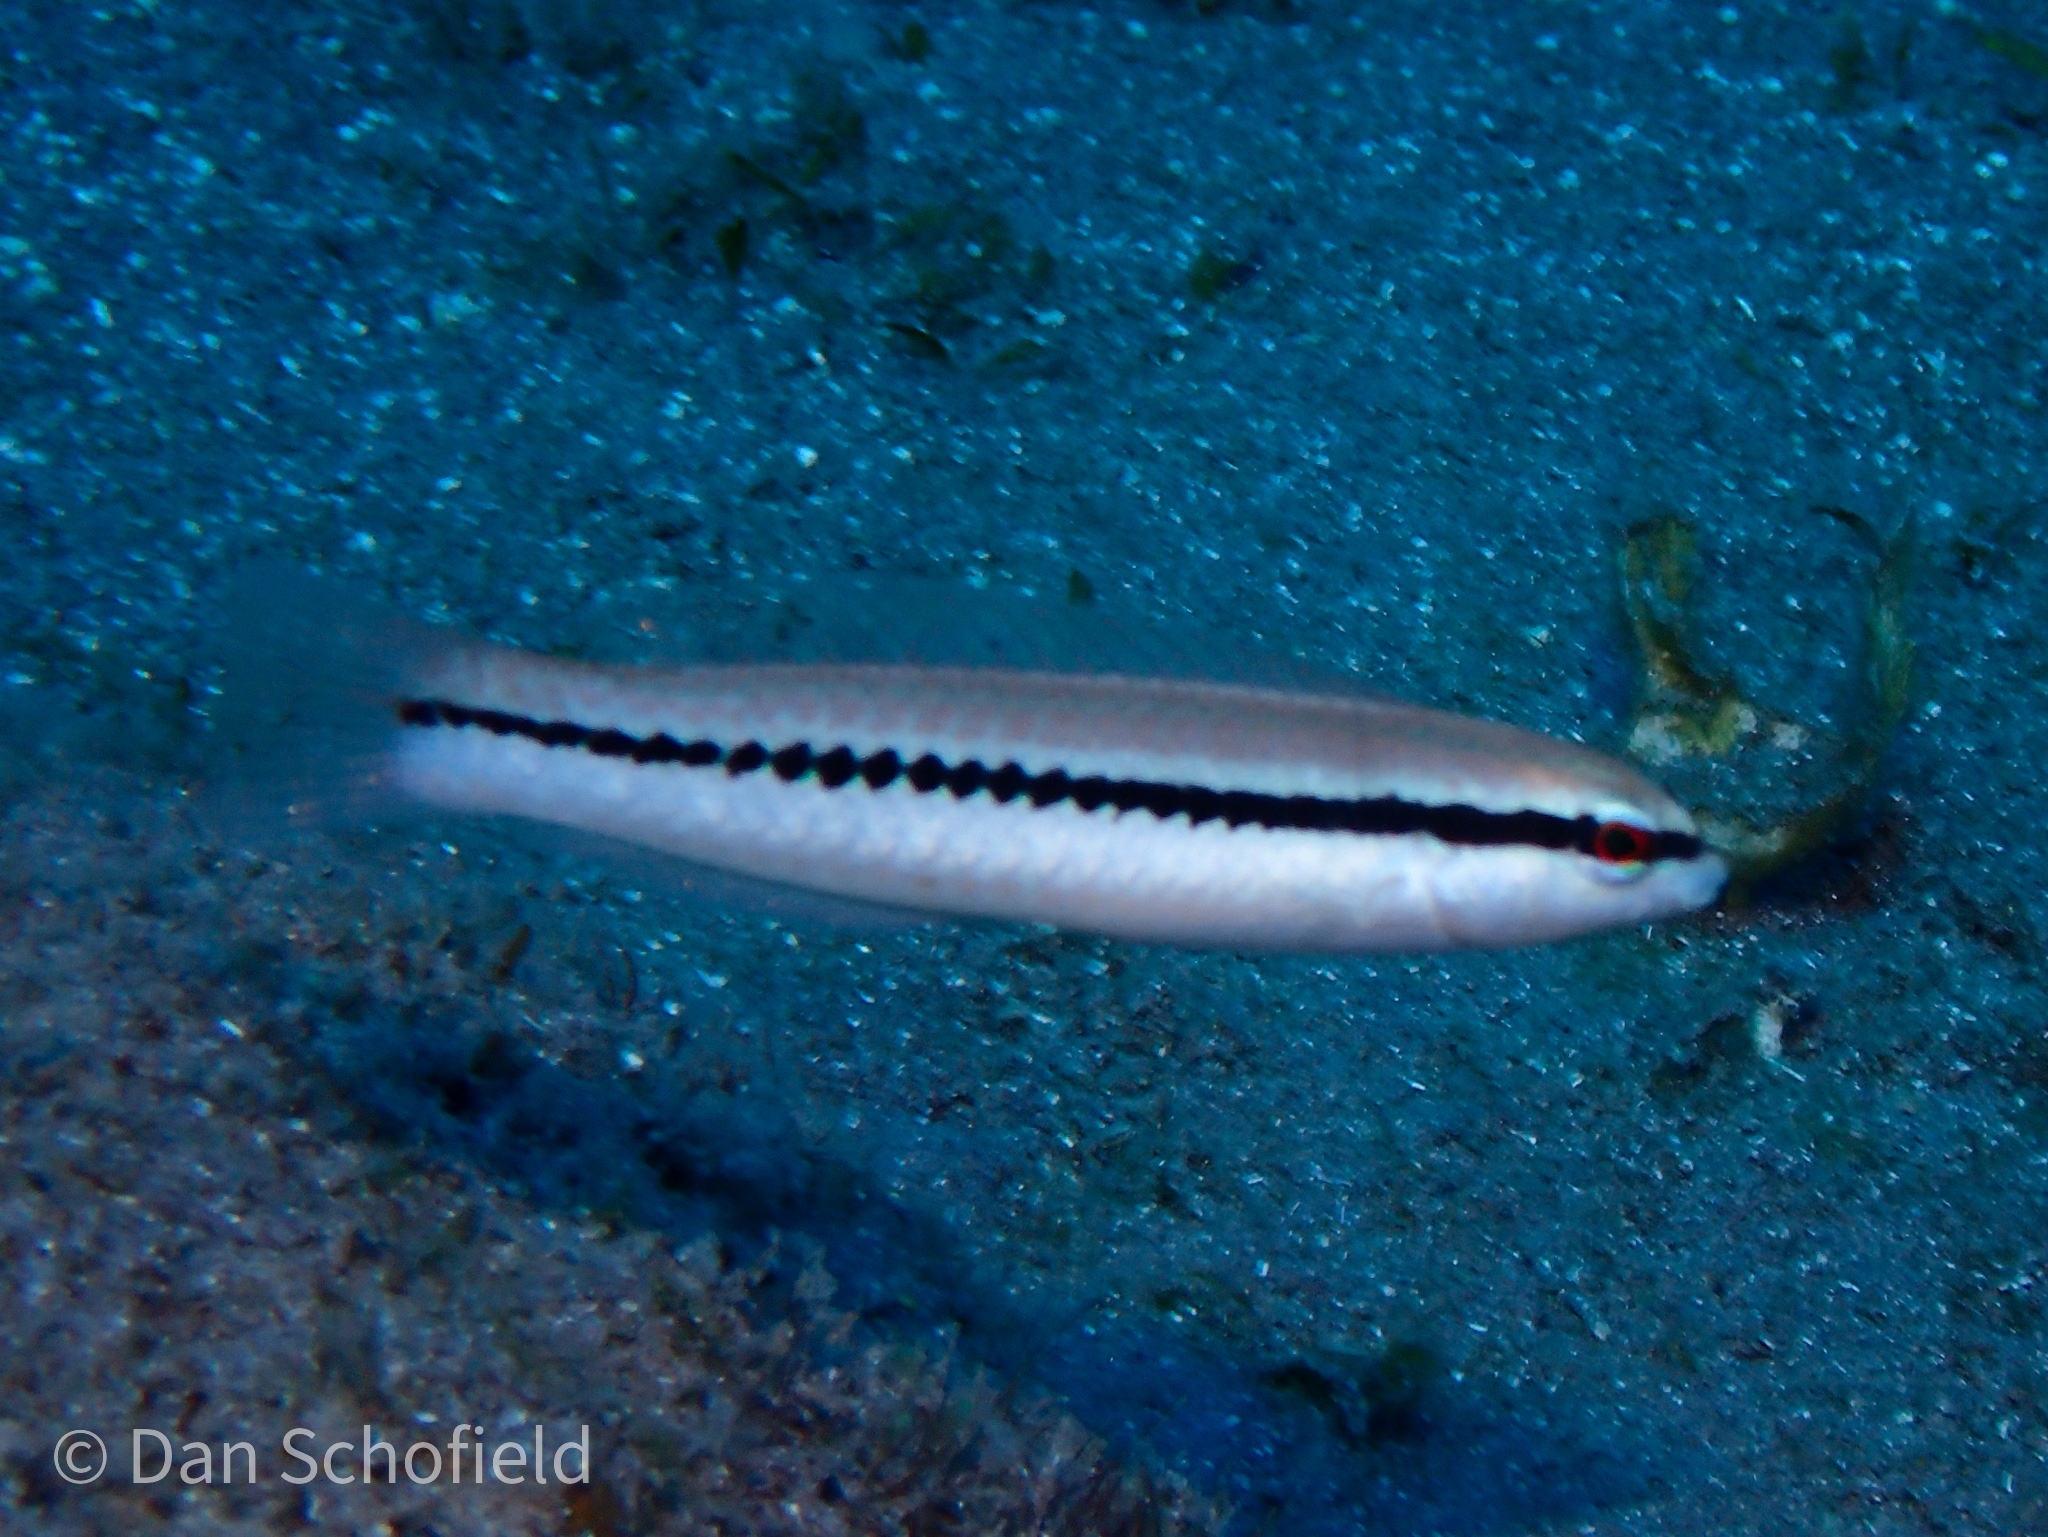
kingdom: Animalia
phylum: Chordata
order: Perciformes
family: Labridae
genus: Halichoeres
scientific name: Halichoeres bivittatus
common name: Slippery dick
